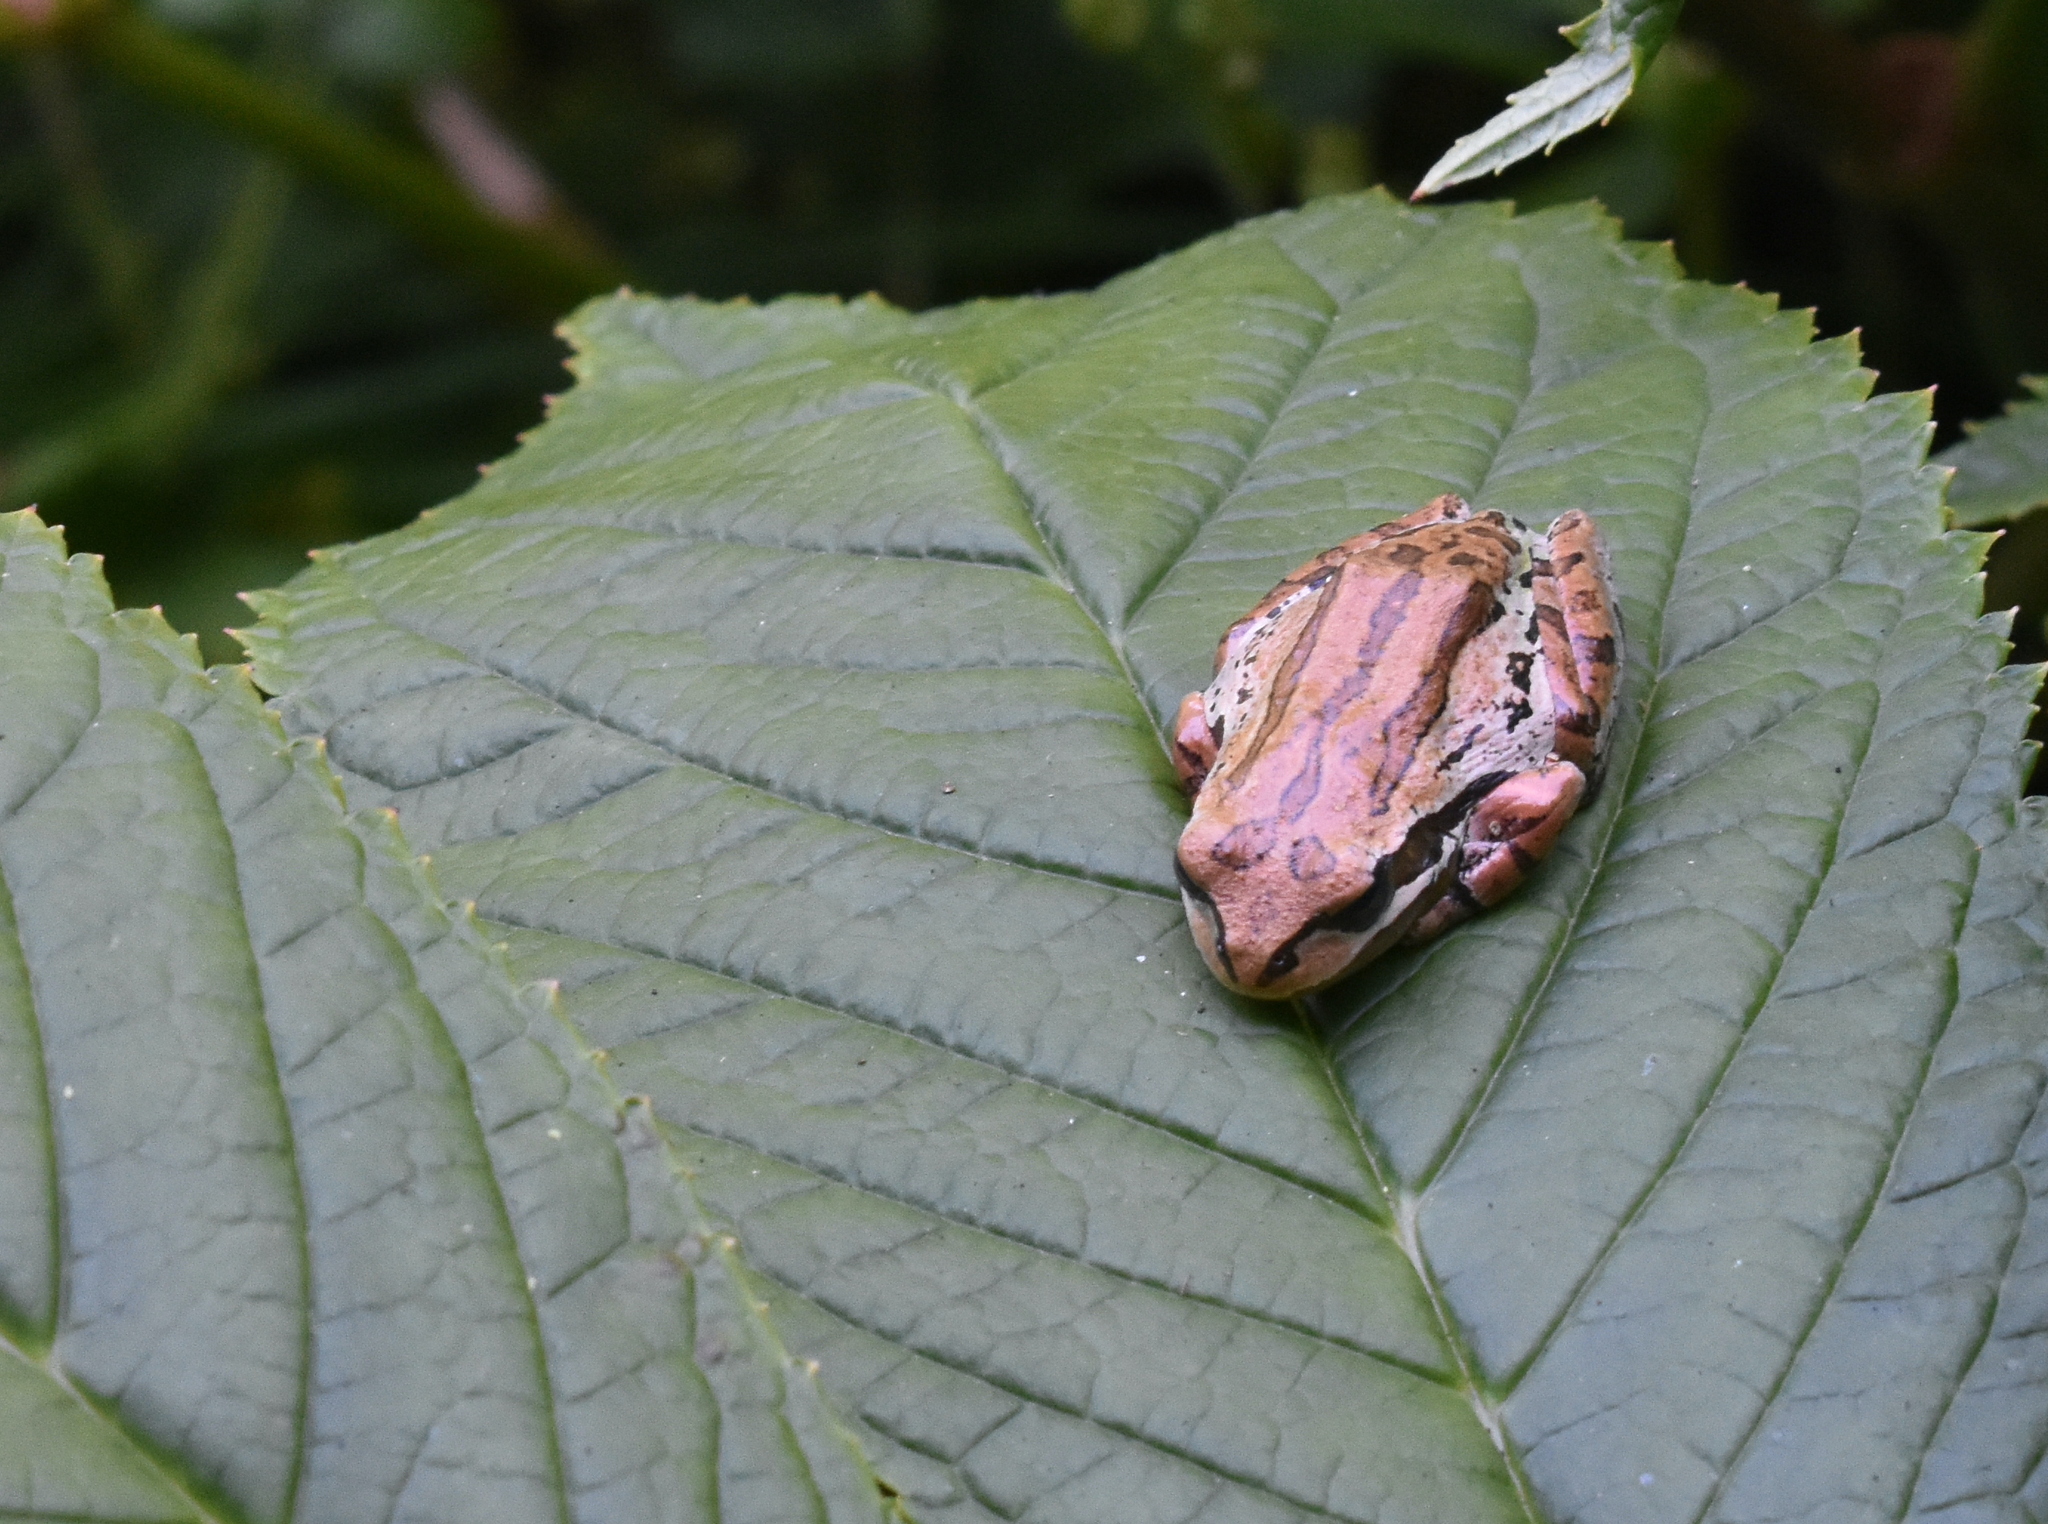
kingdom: Animalia
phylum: Chordata
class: Amphibia
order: Anura
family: Hylidae
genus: Pseudacris
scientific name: Pseudacris regilla
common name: Pacific chorus frog
